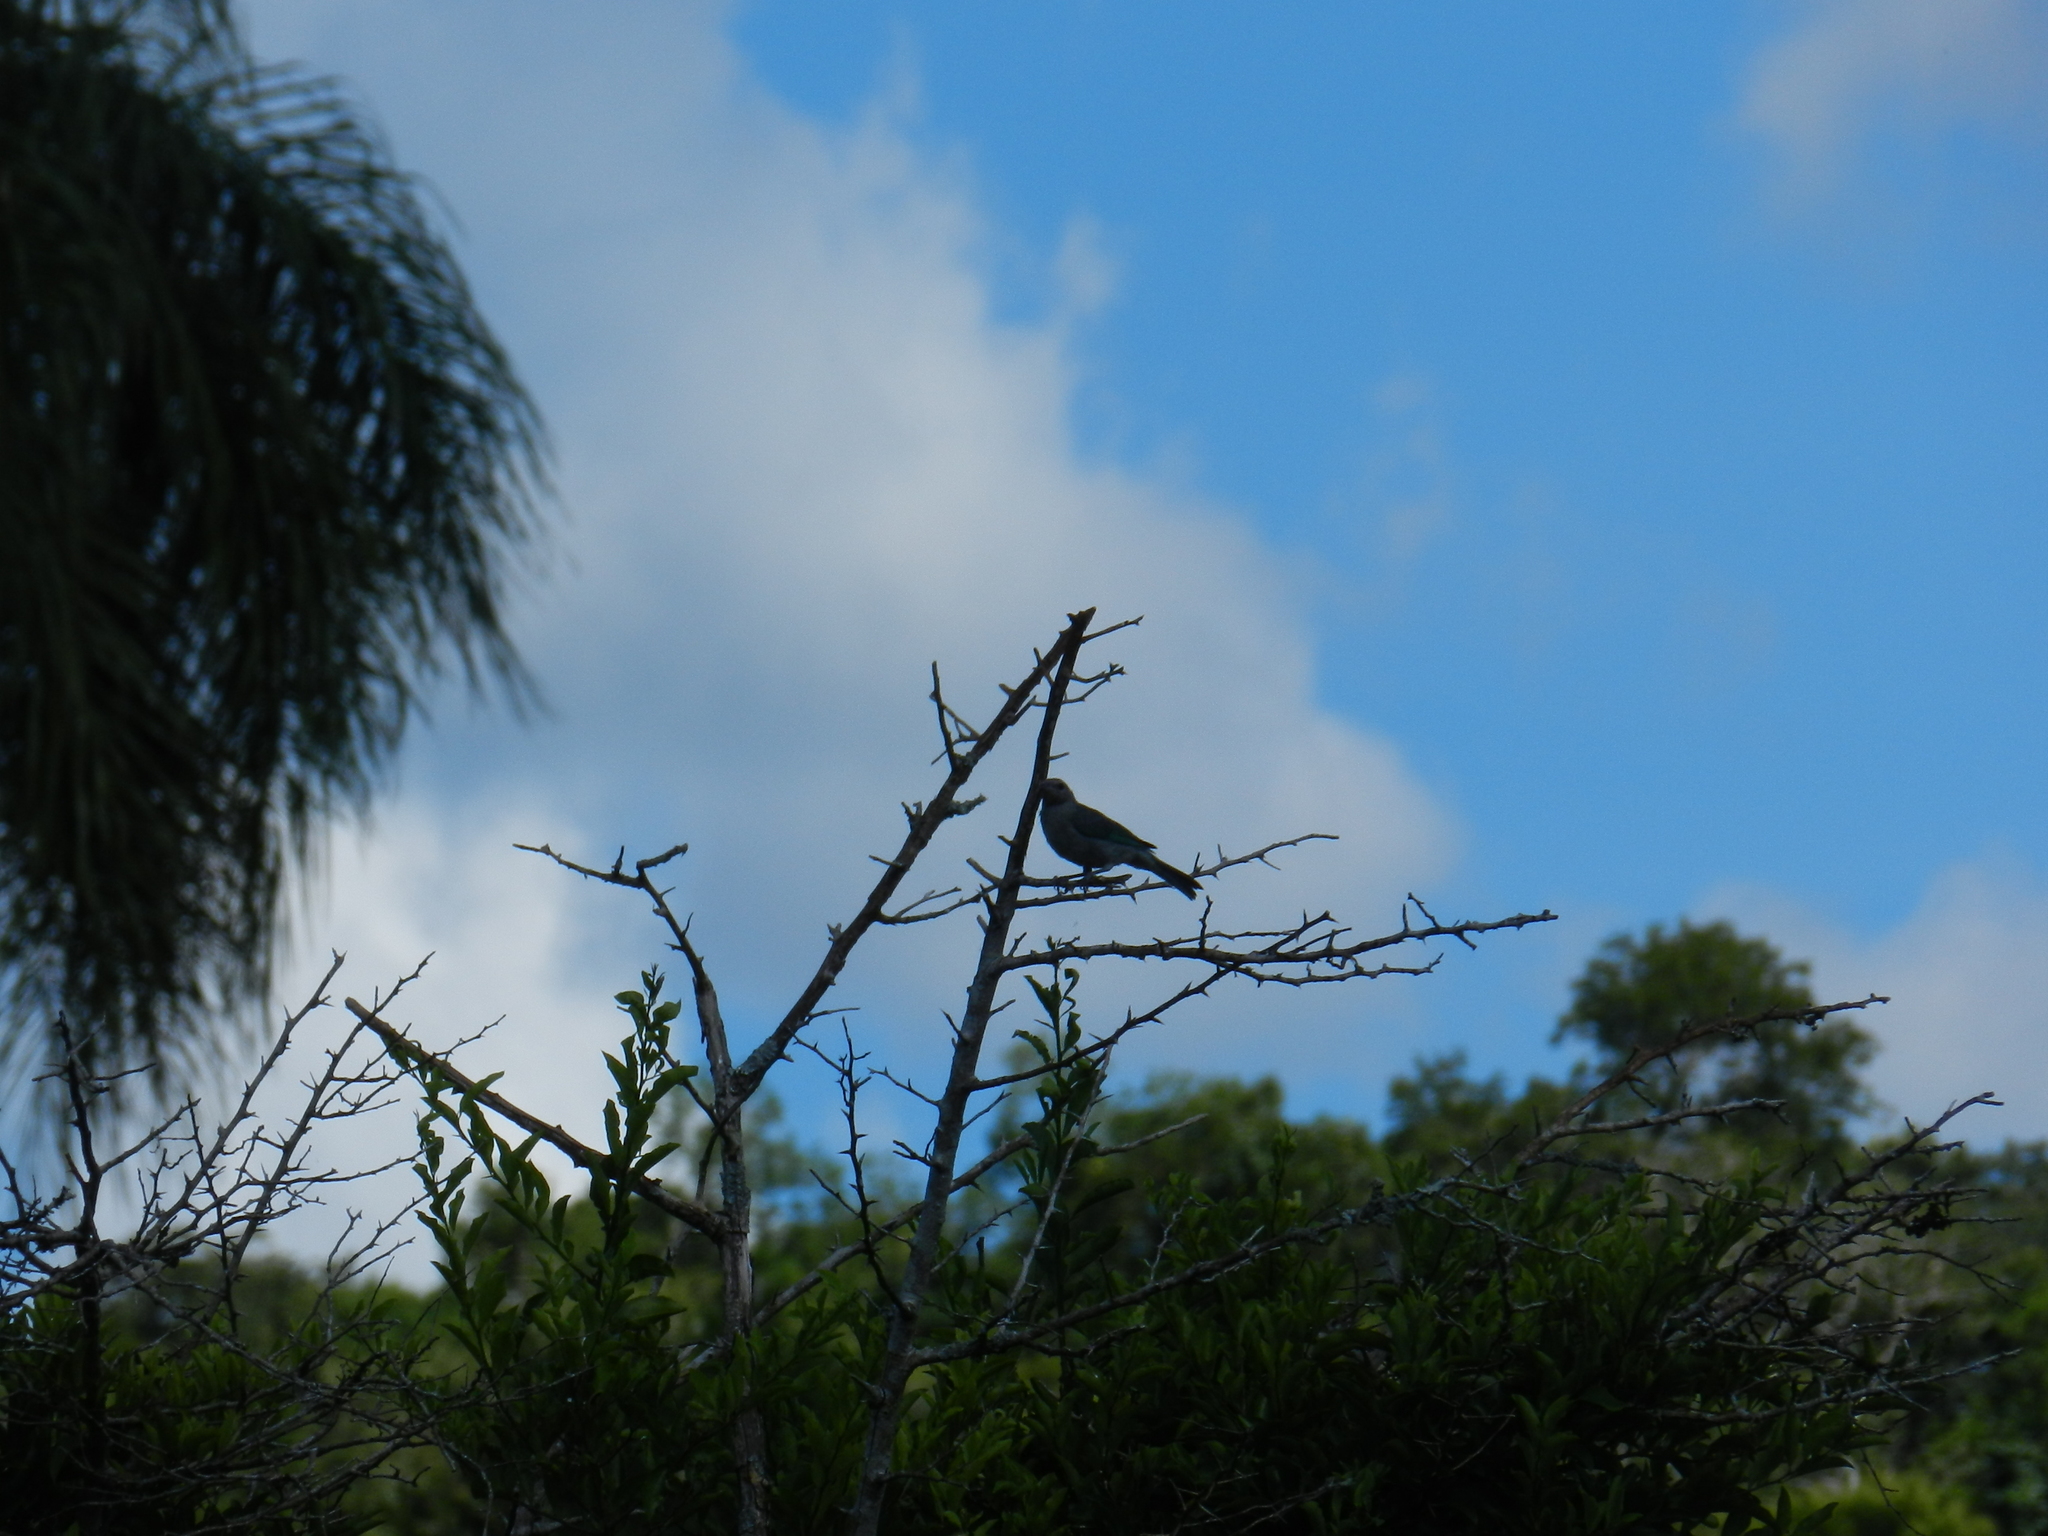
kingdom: Animalia
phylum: Chordata
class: Aves
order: Passeriformes
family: Thraupidae
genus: Thraupis
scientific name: Thraupis sayaca
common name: Sayaca tanager
